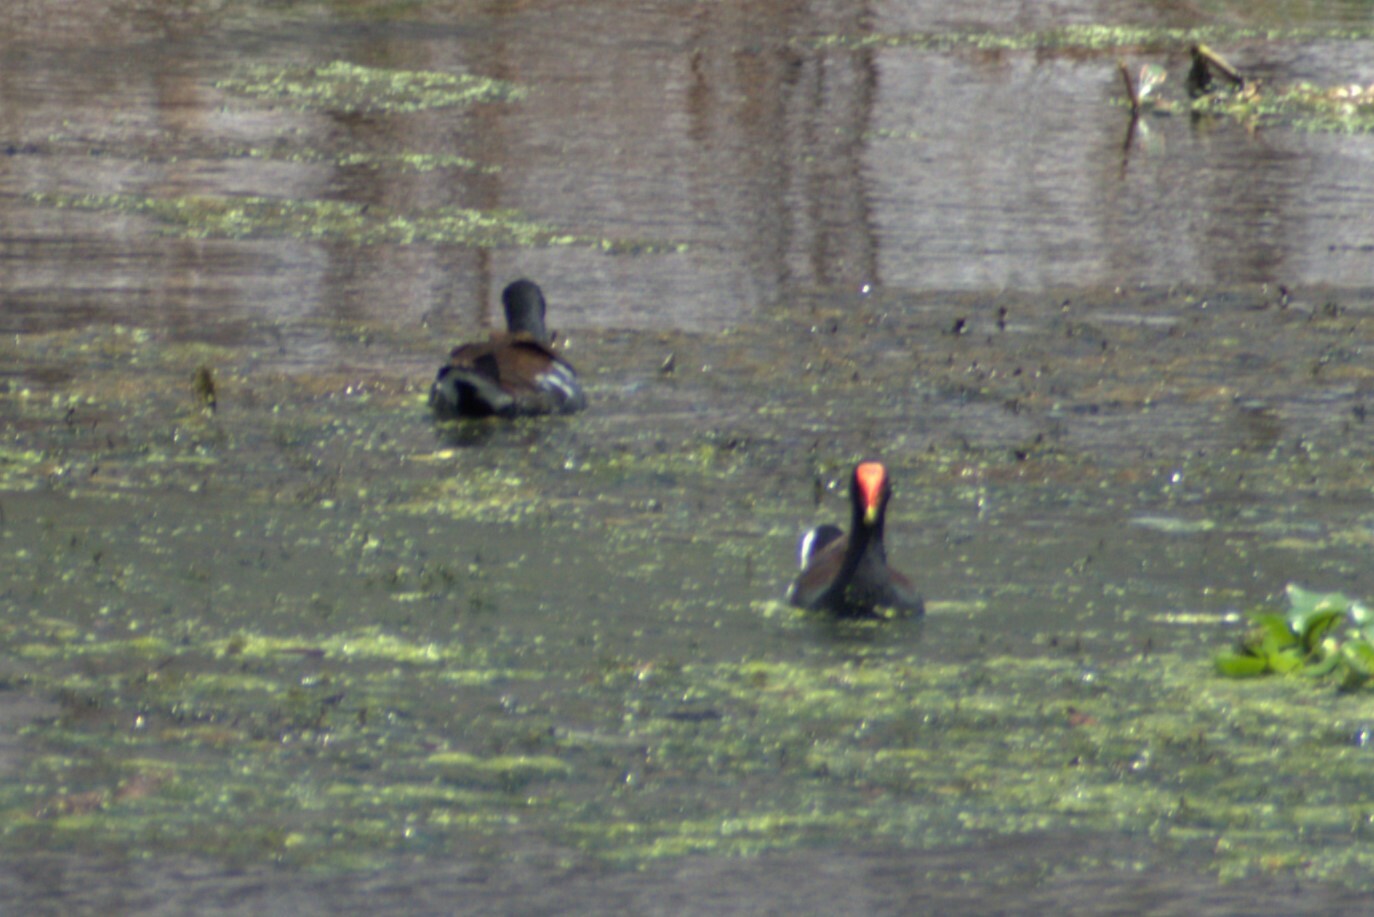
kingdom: Animalia
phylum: Chordata
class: Aves
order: Gruiformes
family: Rallidae
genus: Gallinula
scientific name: Gallinula chloropus
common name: Common moorhen
